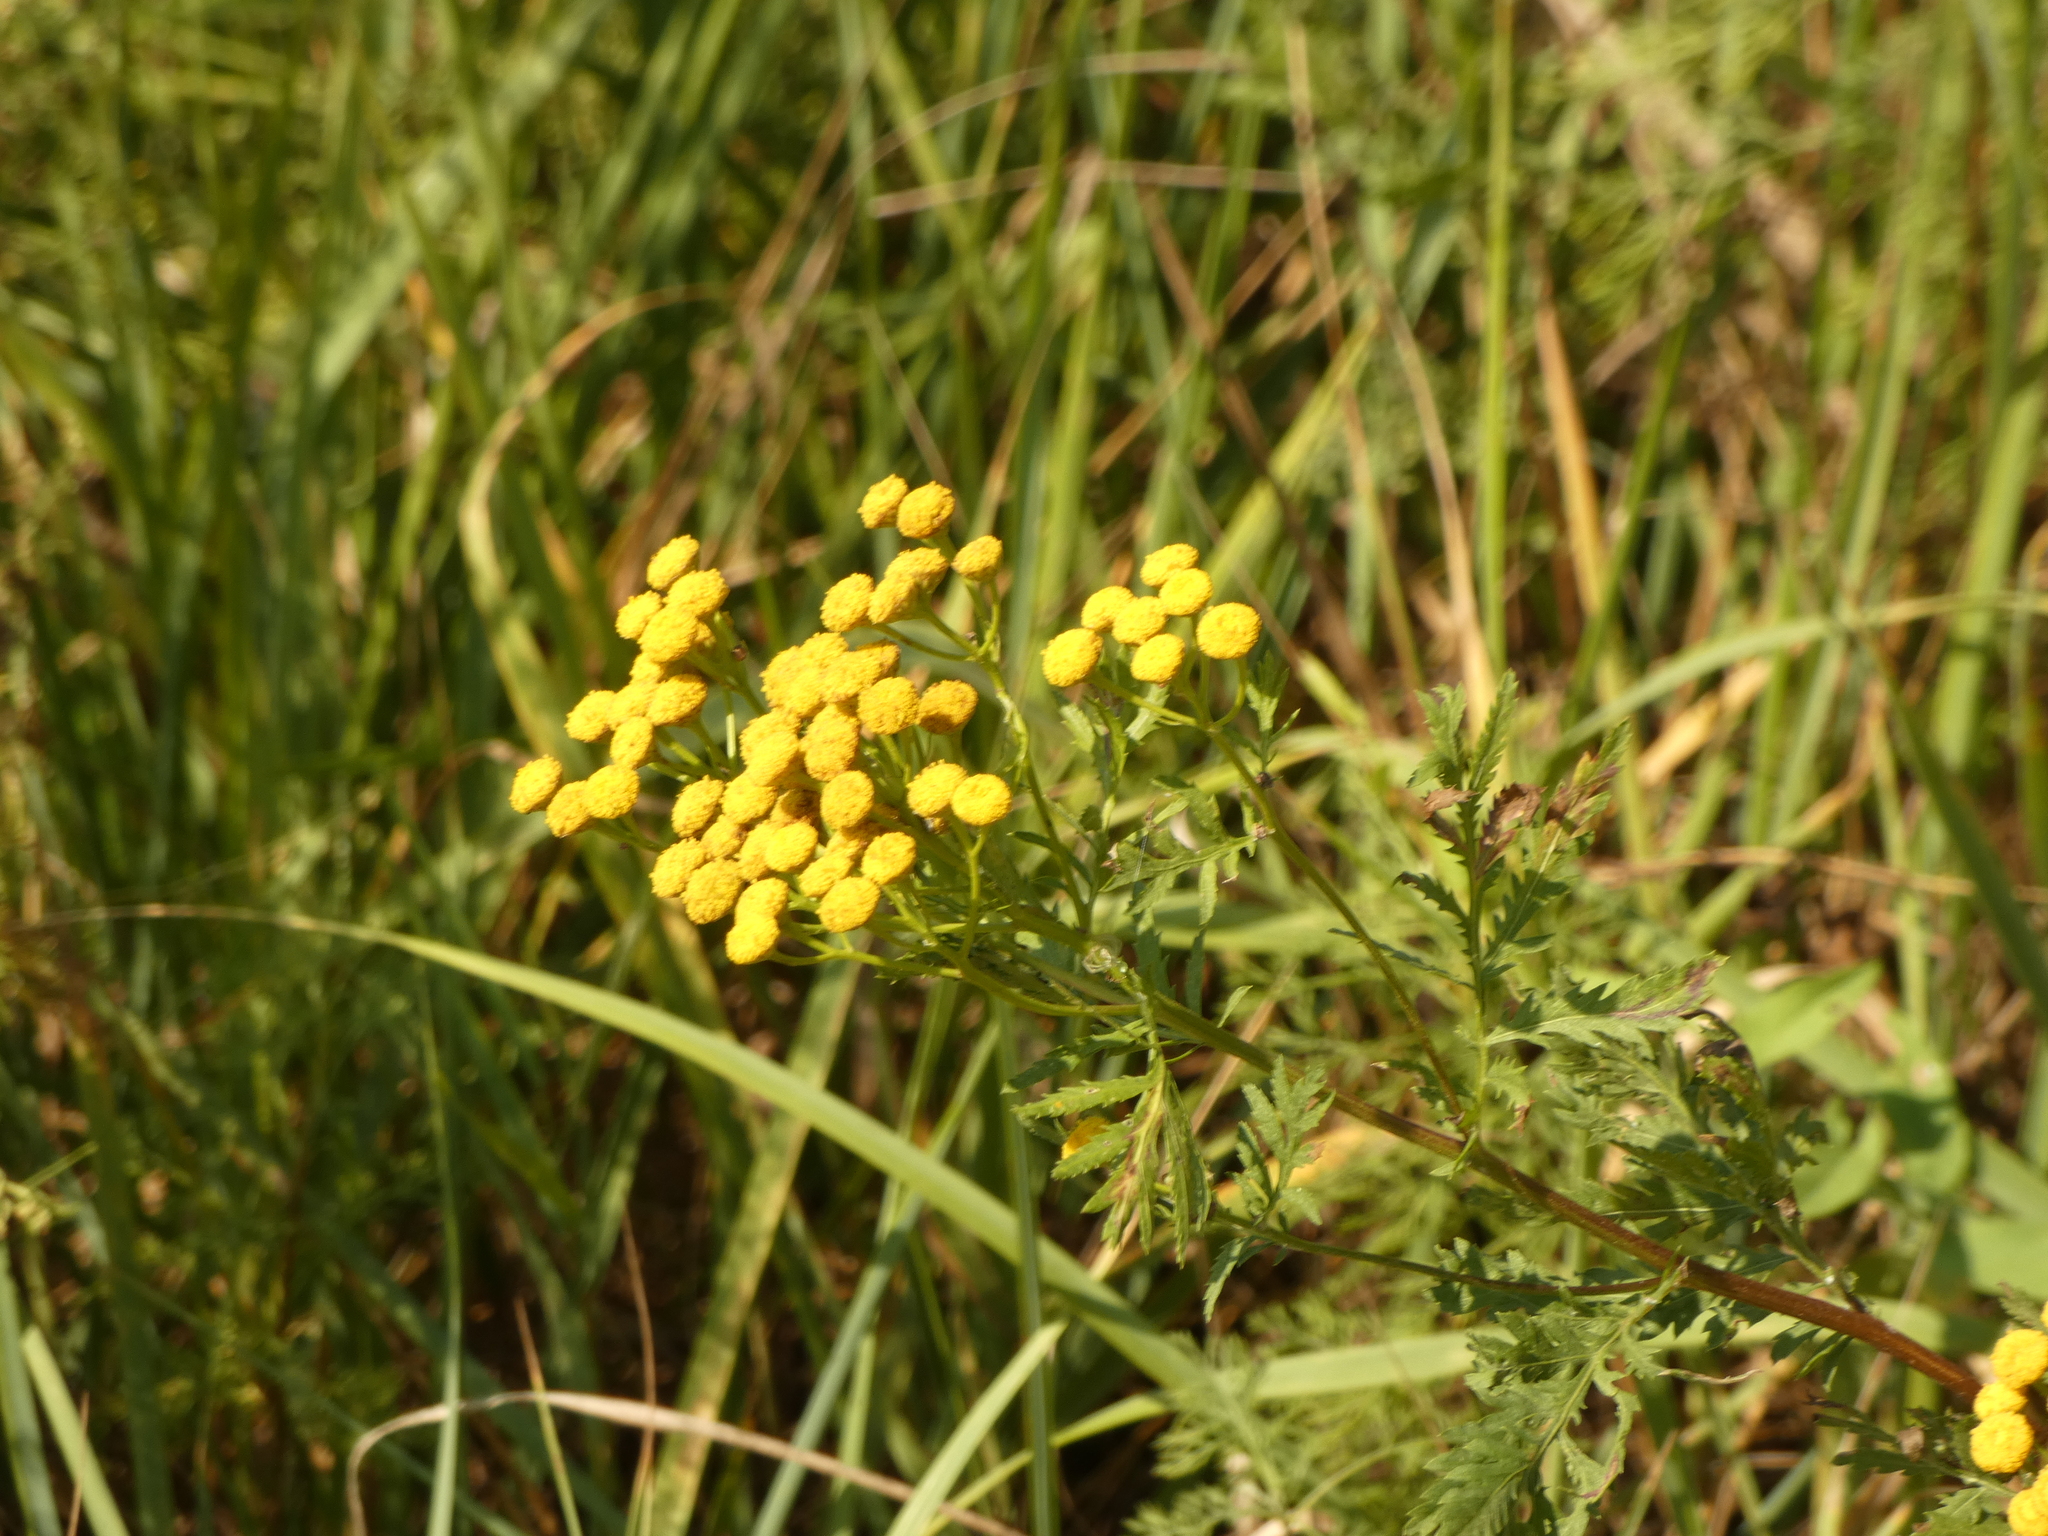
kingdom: Plantae
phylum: Tracheophyta
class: Magnoliopsida
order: Asterales
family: Asteraceae
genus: Tanacetum
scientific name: Tanacetum vulgare
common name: Common tansy
